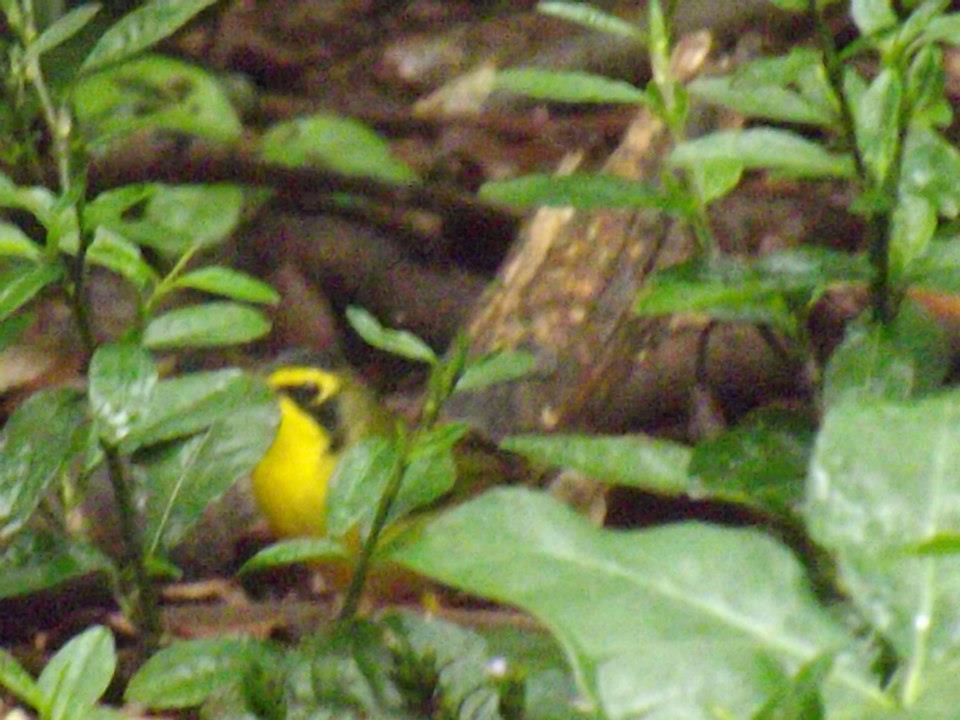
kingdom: Animalia
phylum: Chordata
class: Aves
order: Passeriformes
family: Parulidae
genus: Geothlypis
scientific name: Geothlypis formosa
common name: Kentucky warbler
